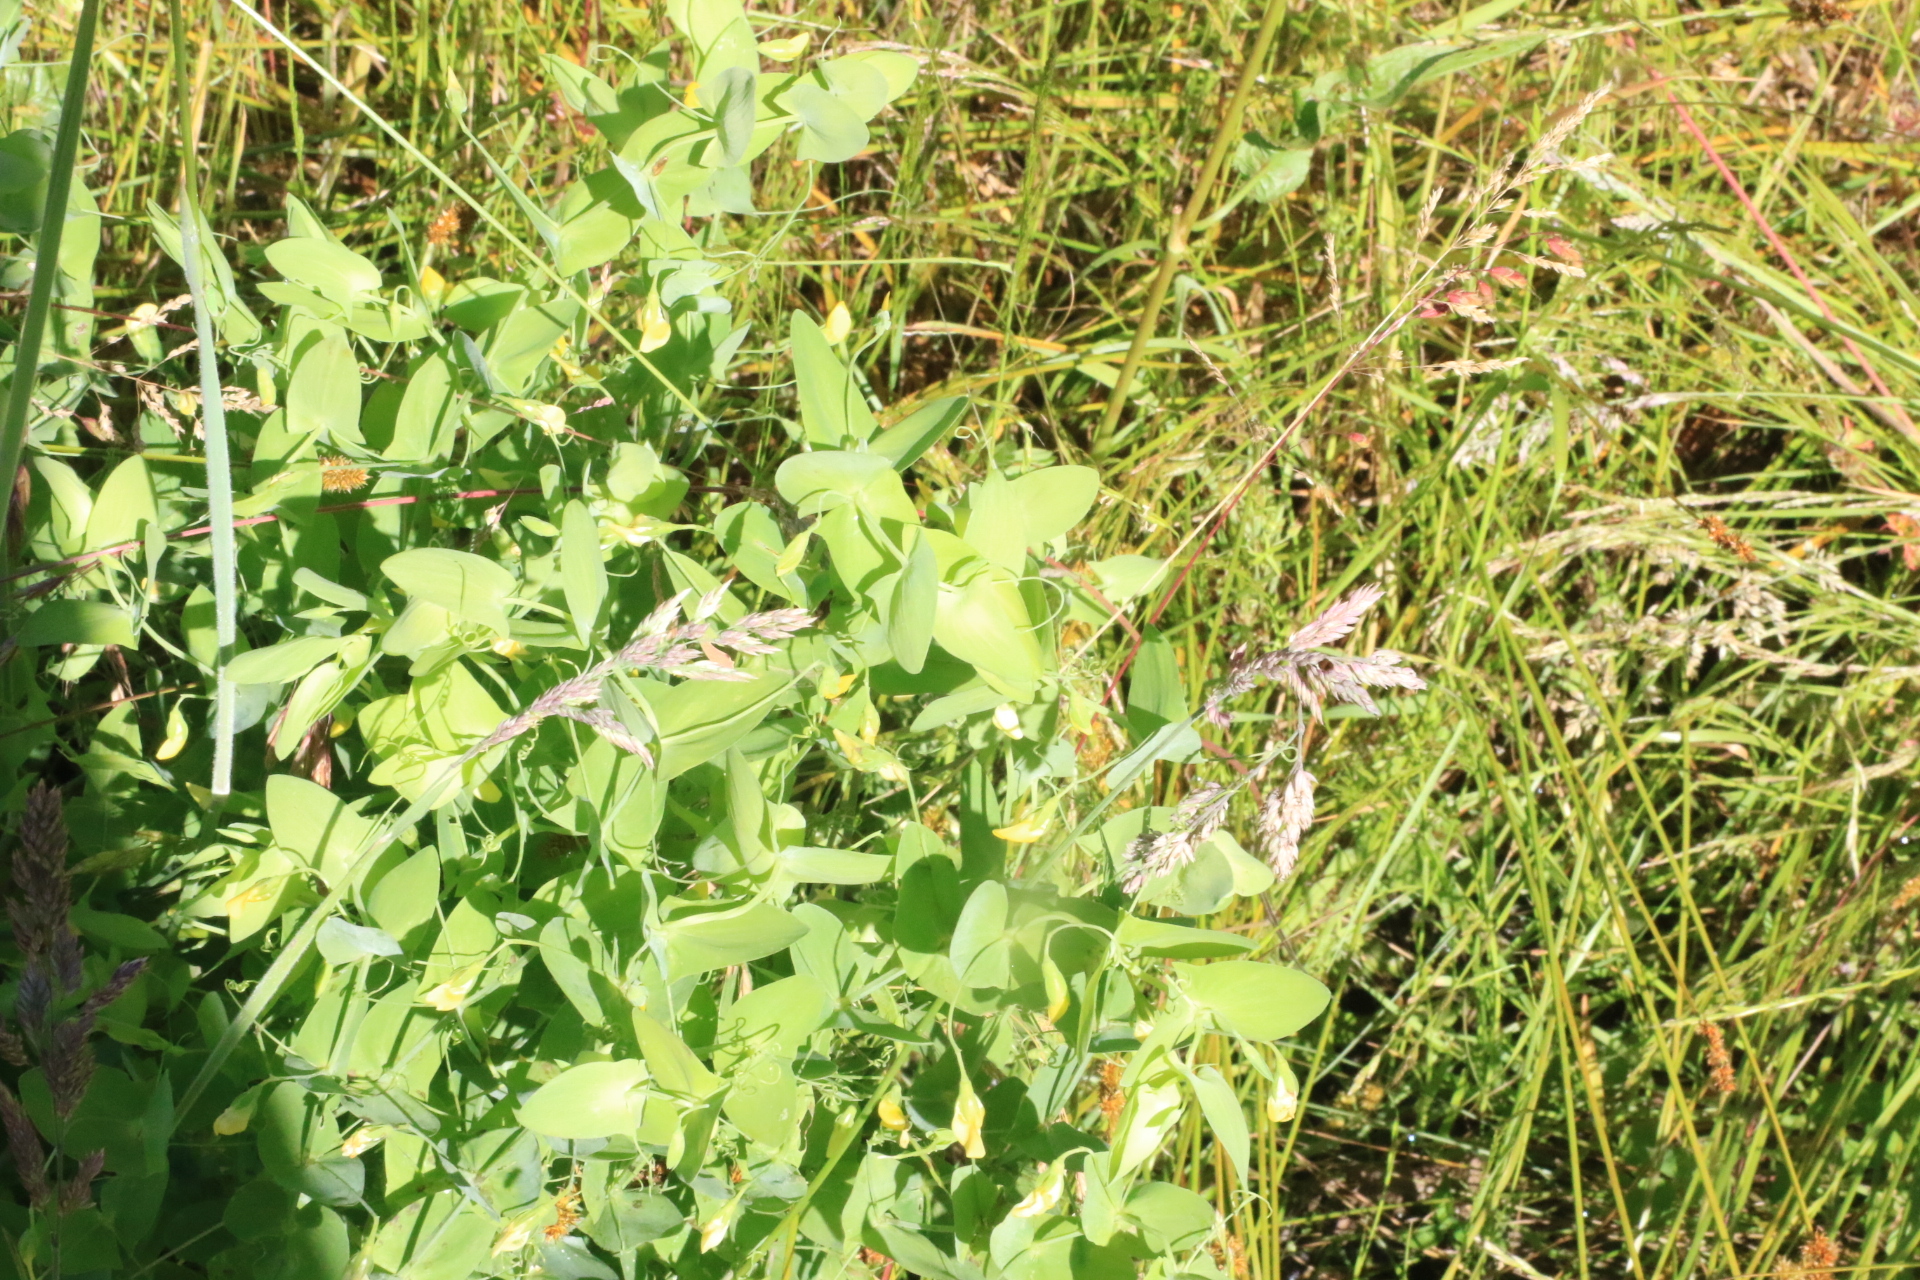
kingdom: Plantae
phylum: Tracheophyta
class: Magnoliopsida
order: Fabales
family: Fabaceae
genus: Lathyrus
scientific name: Lathyrus aphaca
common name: Yellow vetchling
